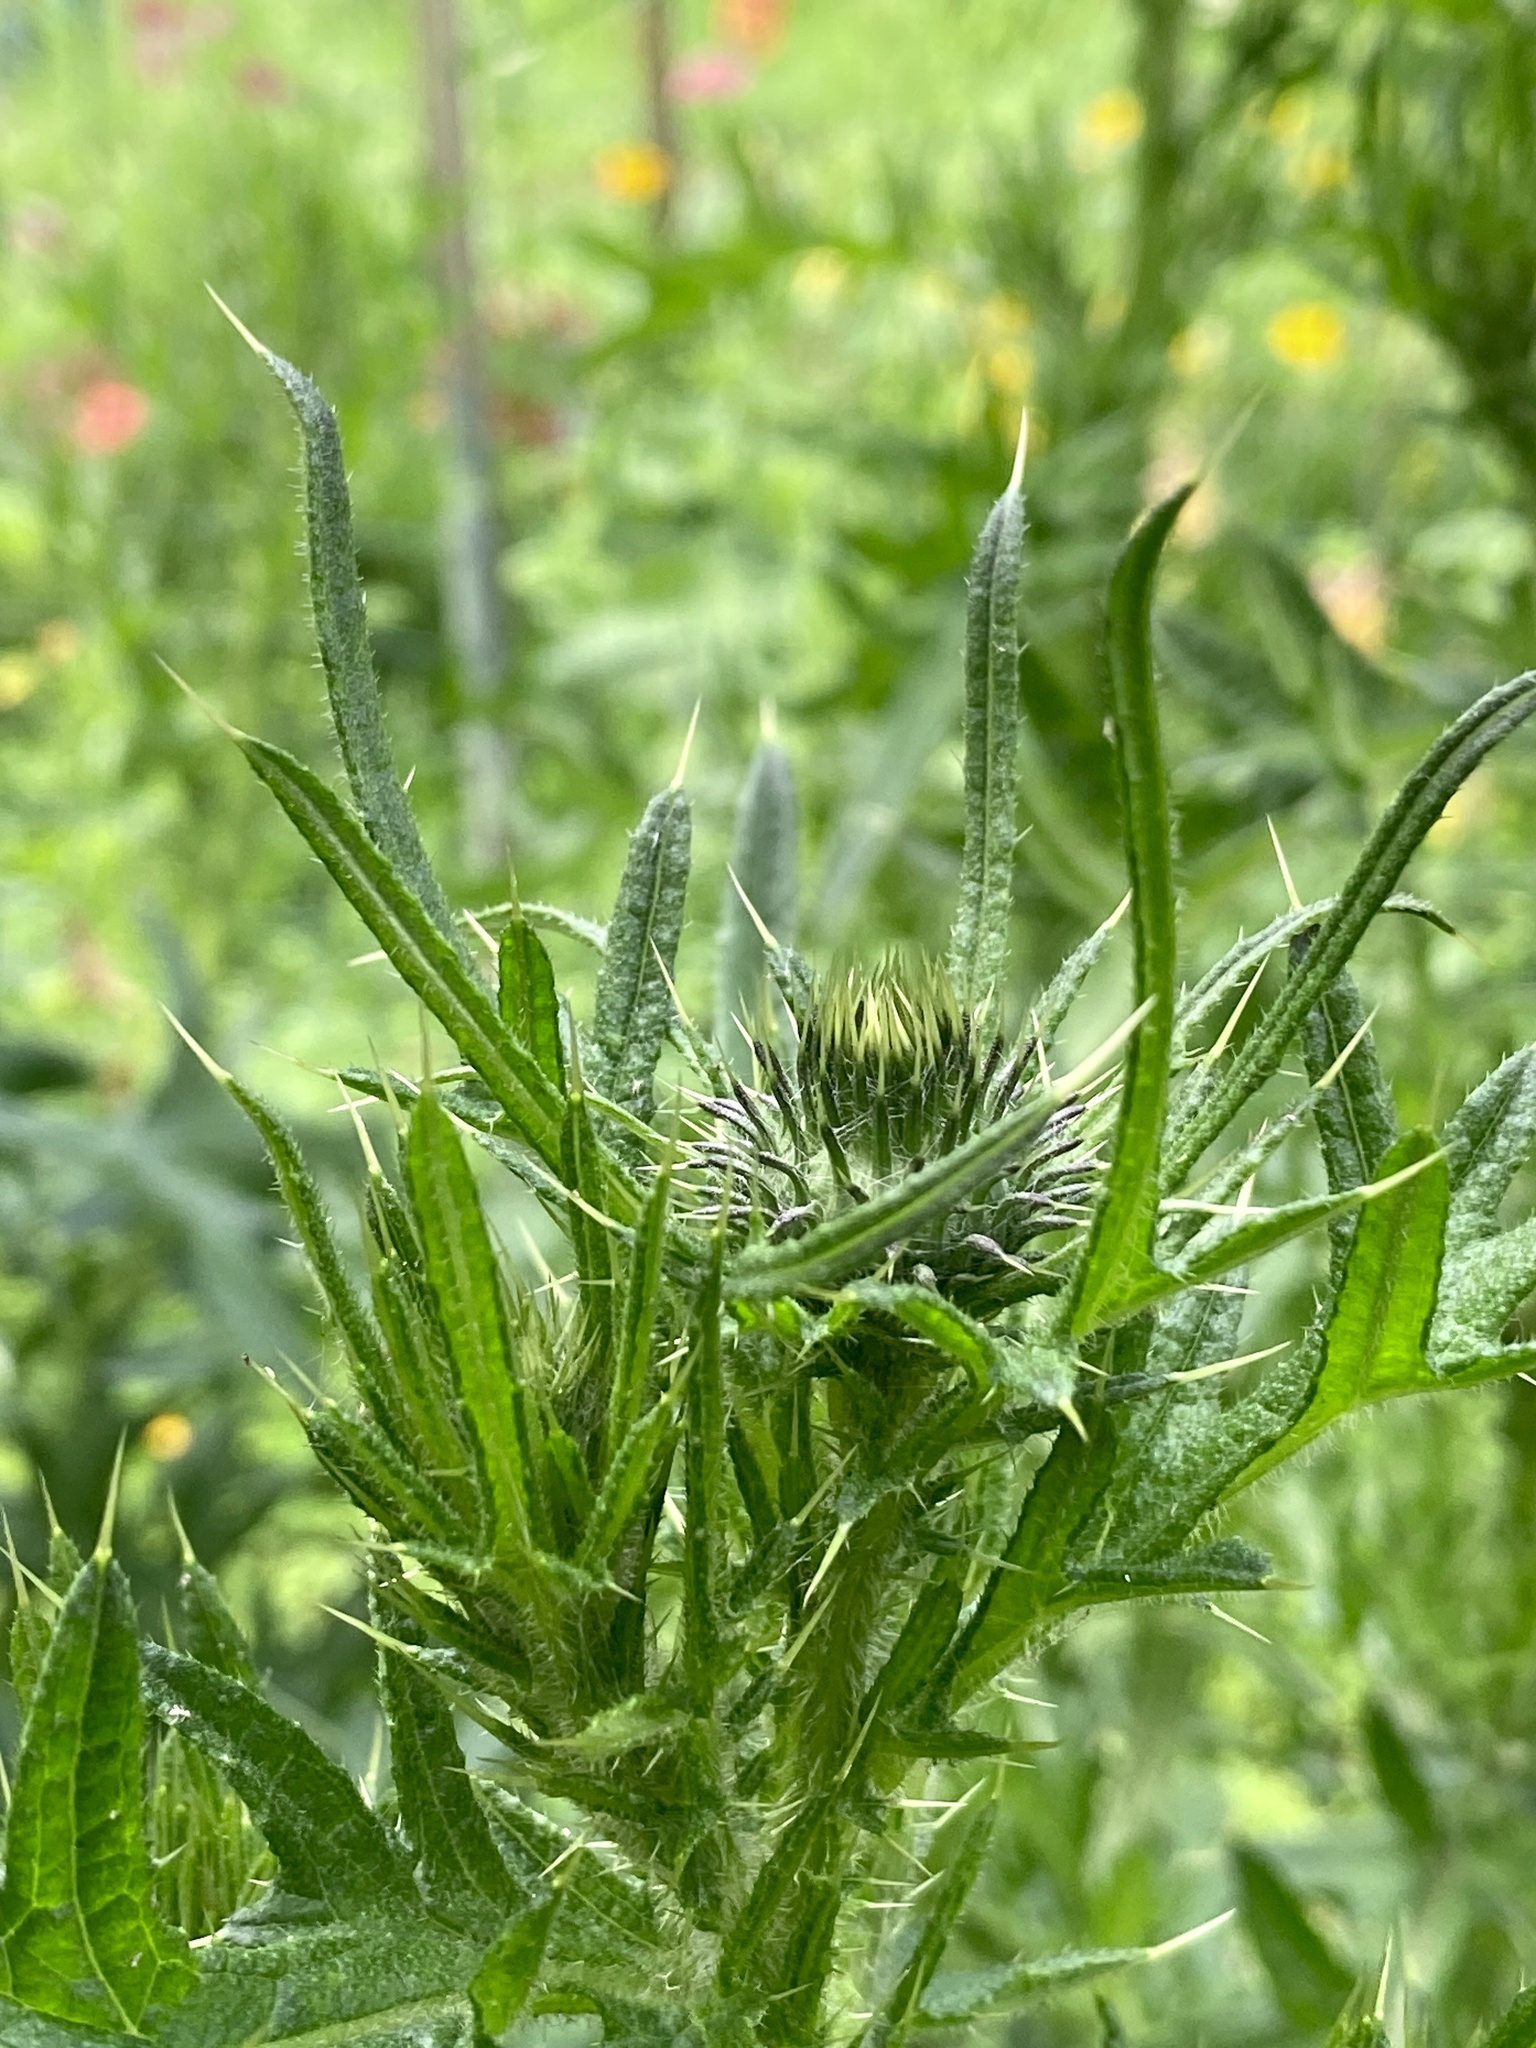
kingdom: Plantae
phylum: Tracheophyta
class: Magnoliopsida
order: Asterales
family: Asteraceae
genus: Cirsium
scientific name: Cirsium vulgare
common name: Bull thistle
